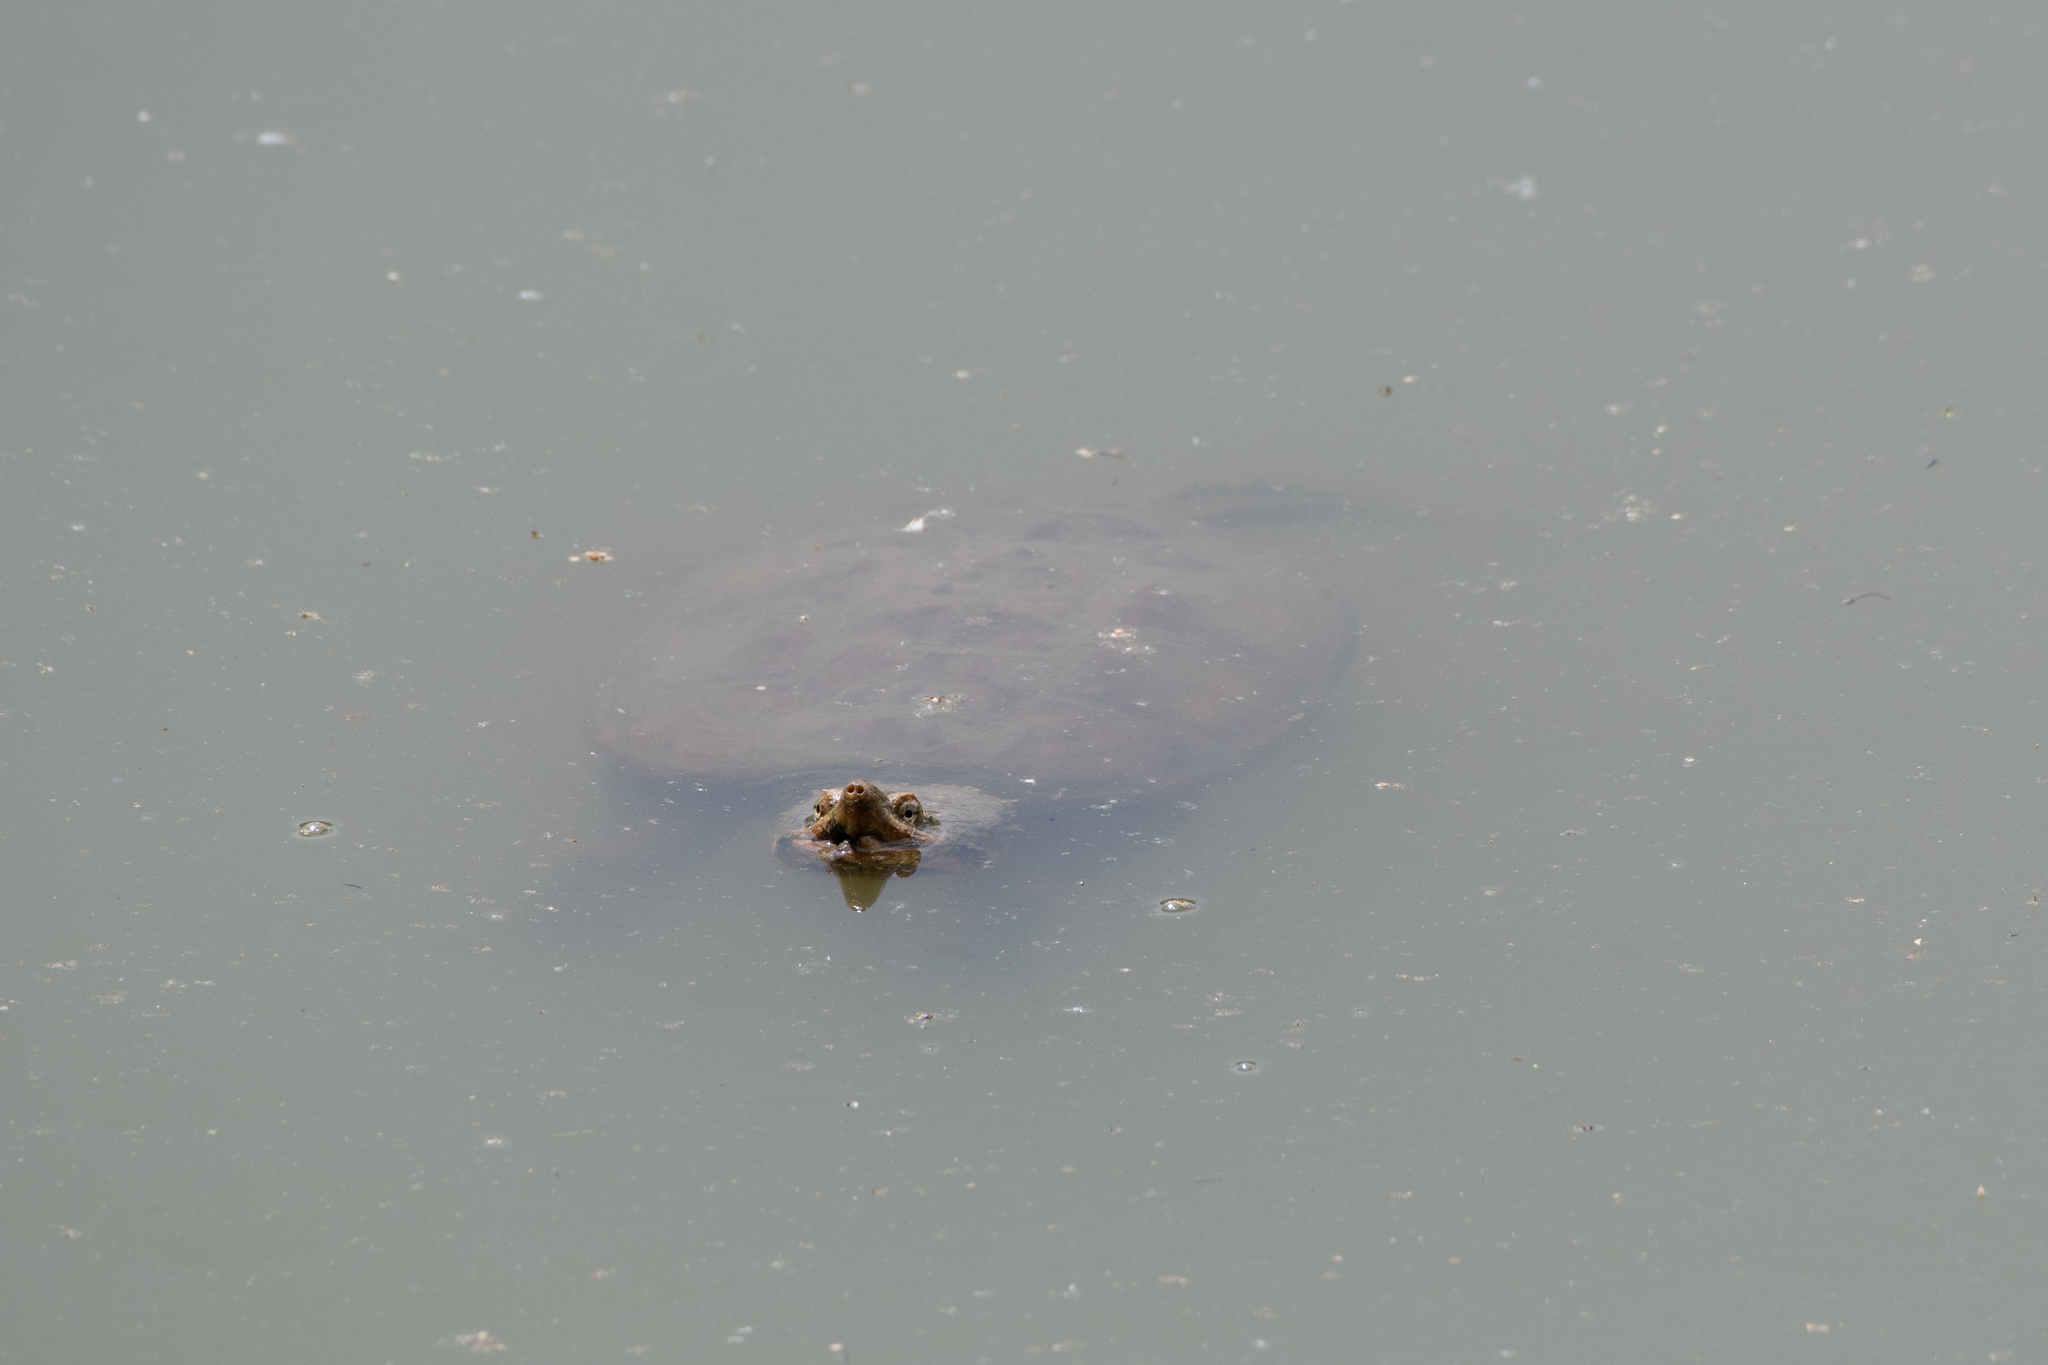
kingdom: Animalia
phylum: Chordata
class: Testudines
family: Chelydridae
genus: Chelydra
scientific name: Chelydra serpentina
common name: Common snapping turtle
